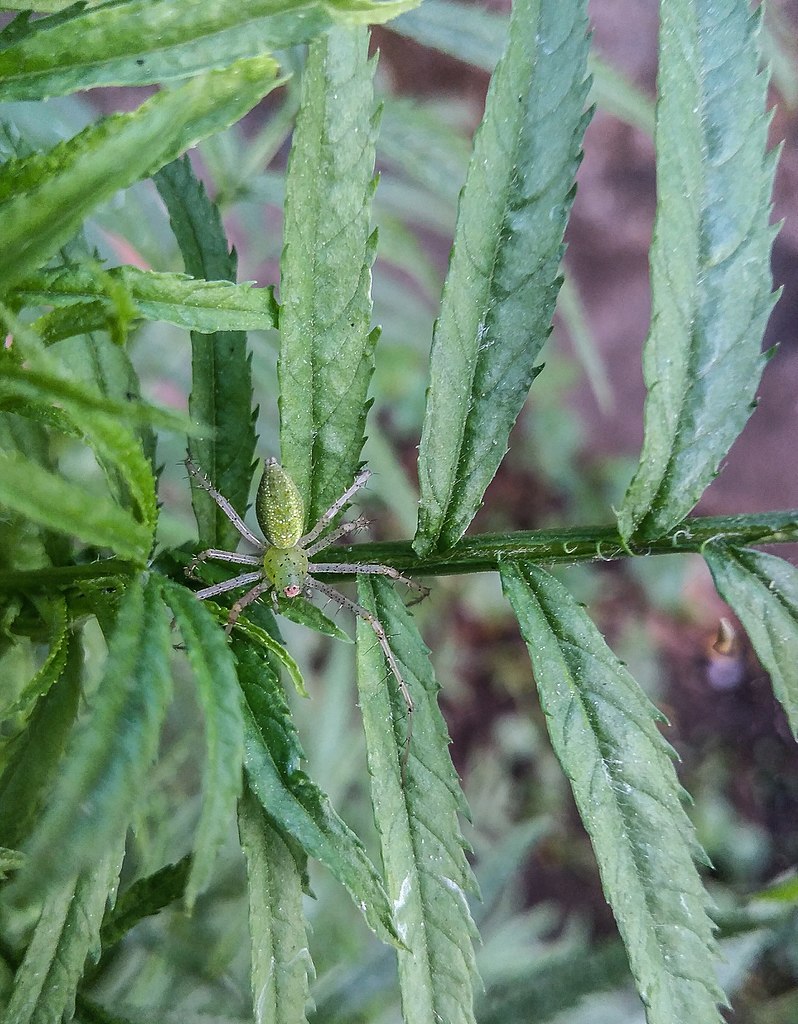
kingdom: Animalia
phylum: Arthropoda
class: Arachnida
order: Araneae
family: Oxyopidae
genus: Peucetia
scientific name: Peucetia viridana
